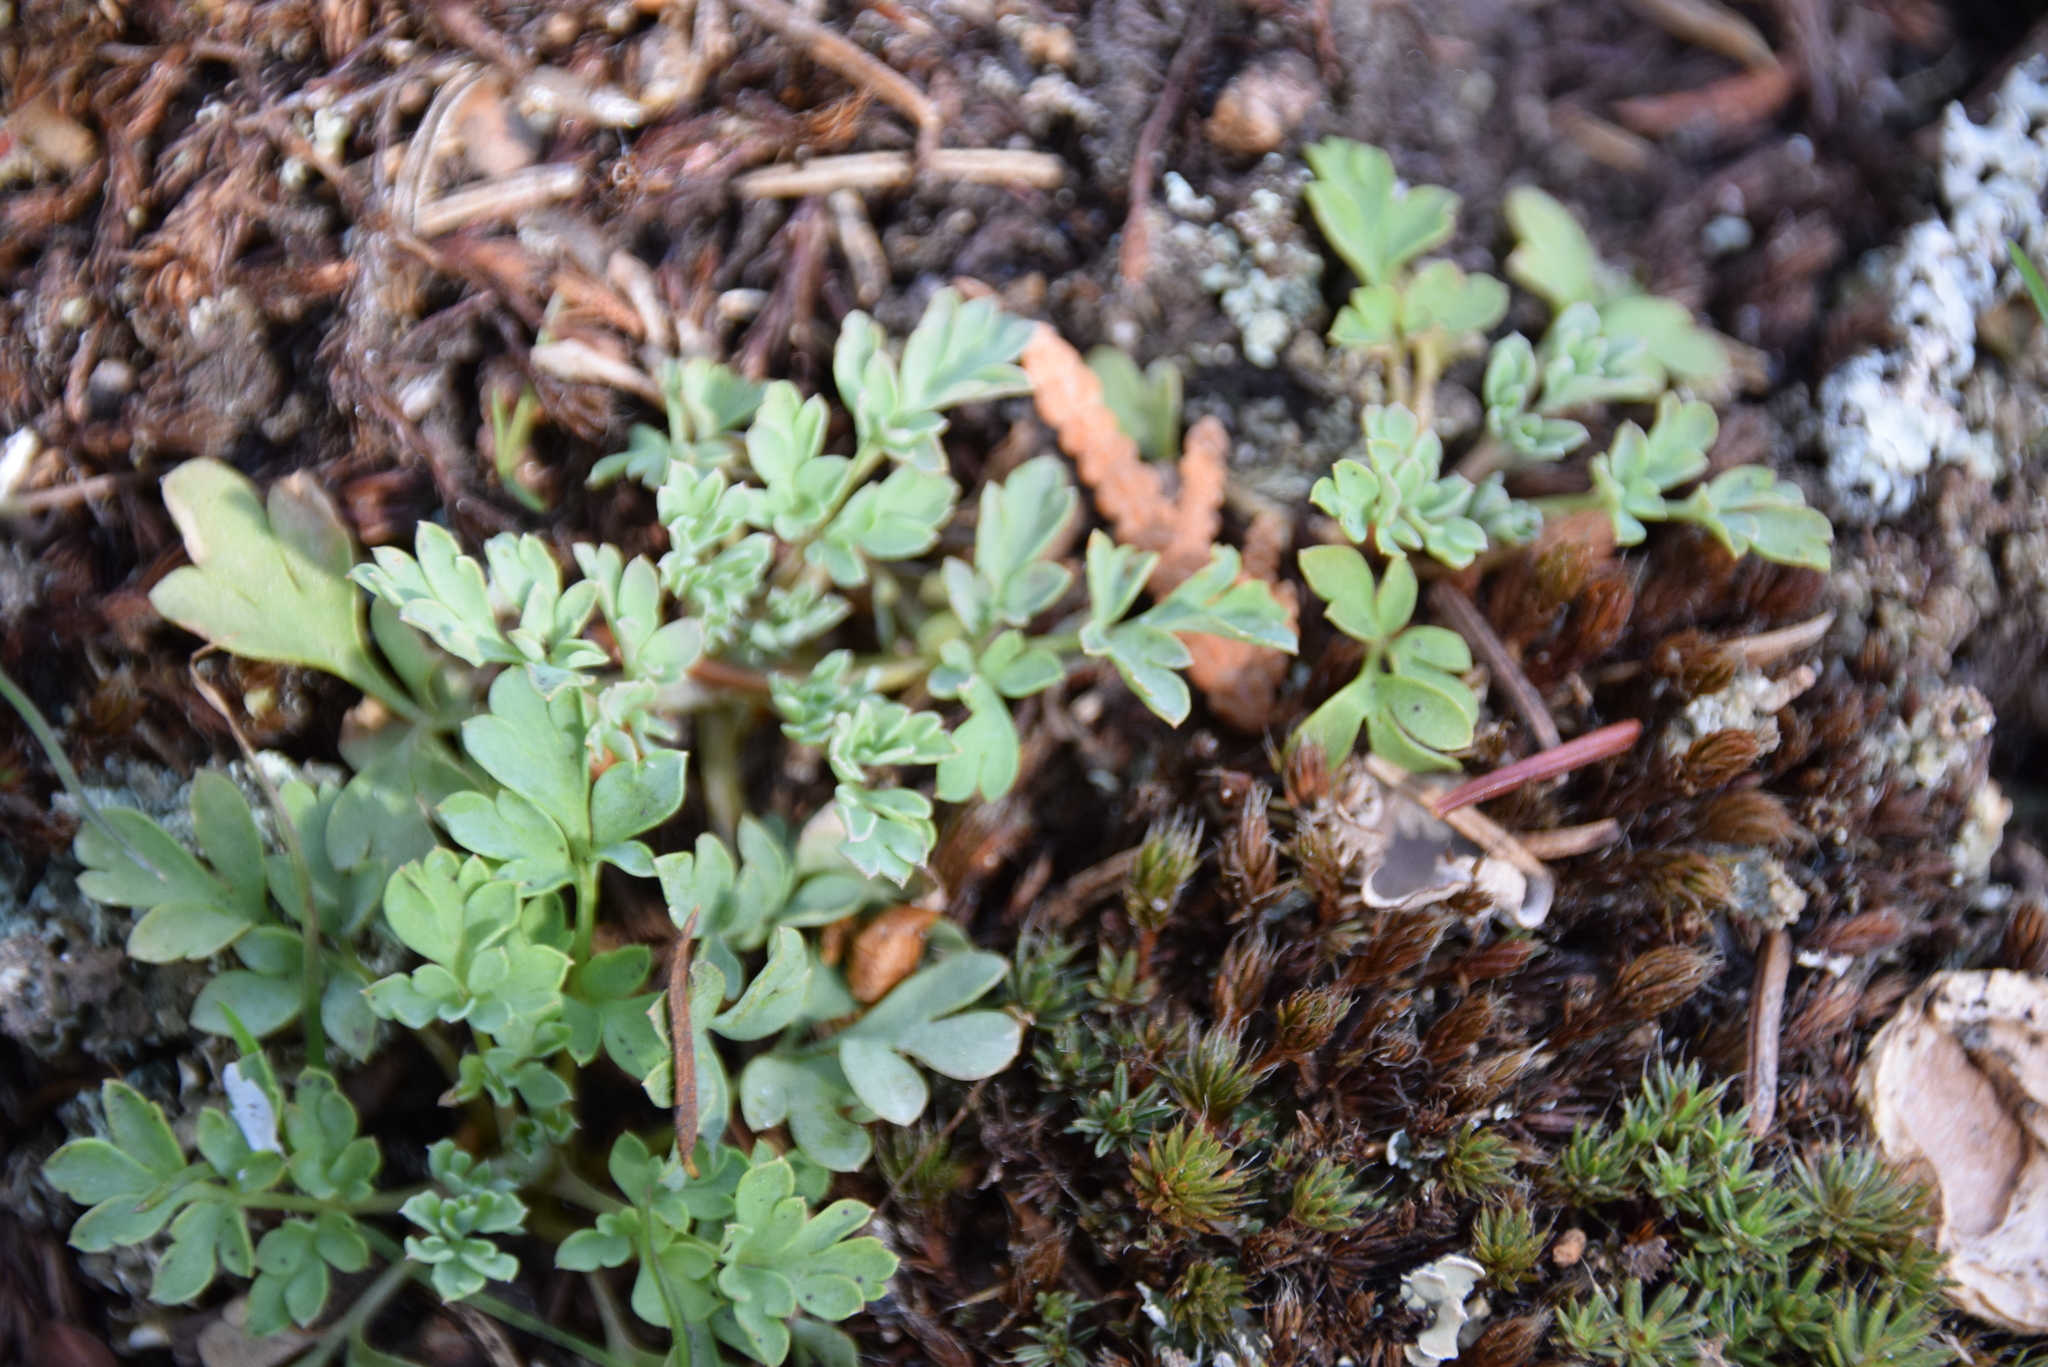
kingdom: Plantae
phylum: Tracheophyta
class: Magnoliopsida
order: Ranunculales
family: Papaveraceae
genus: Capnoides
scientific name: Capnoides sempervirens
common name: Rock harlequin
